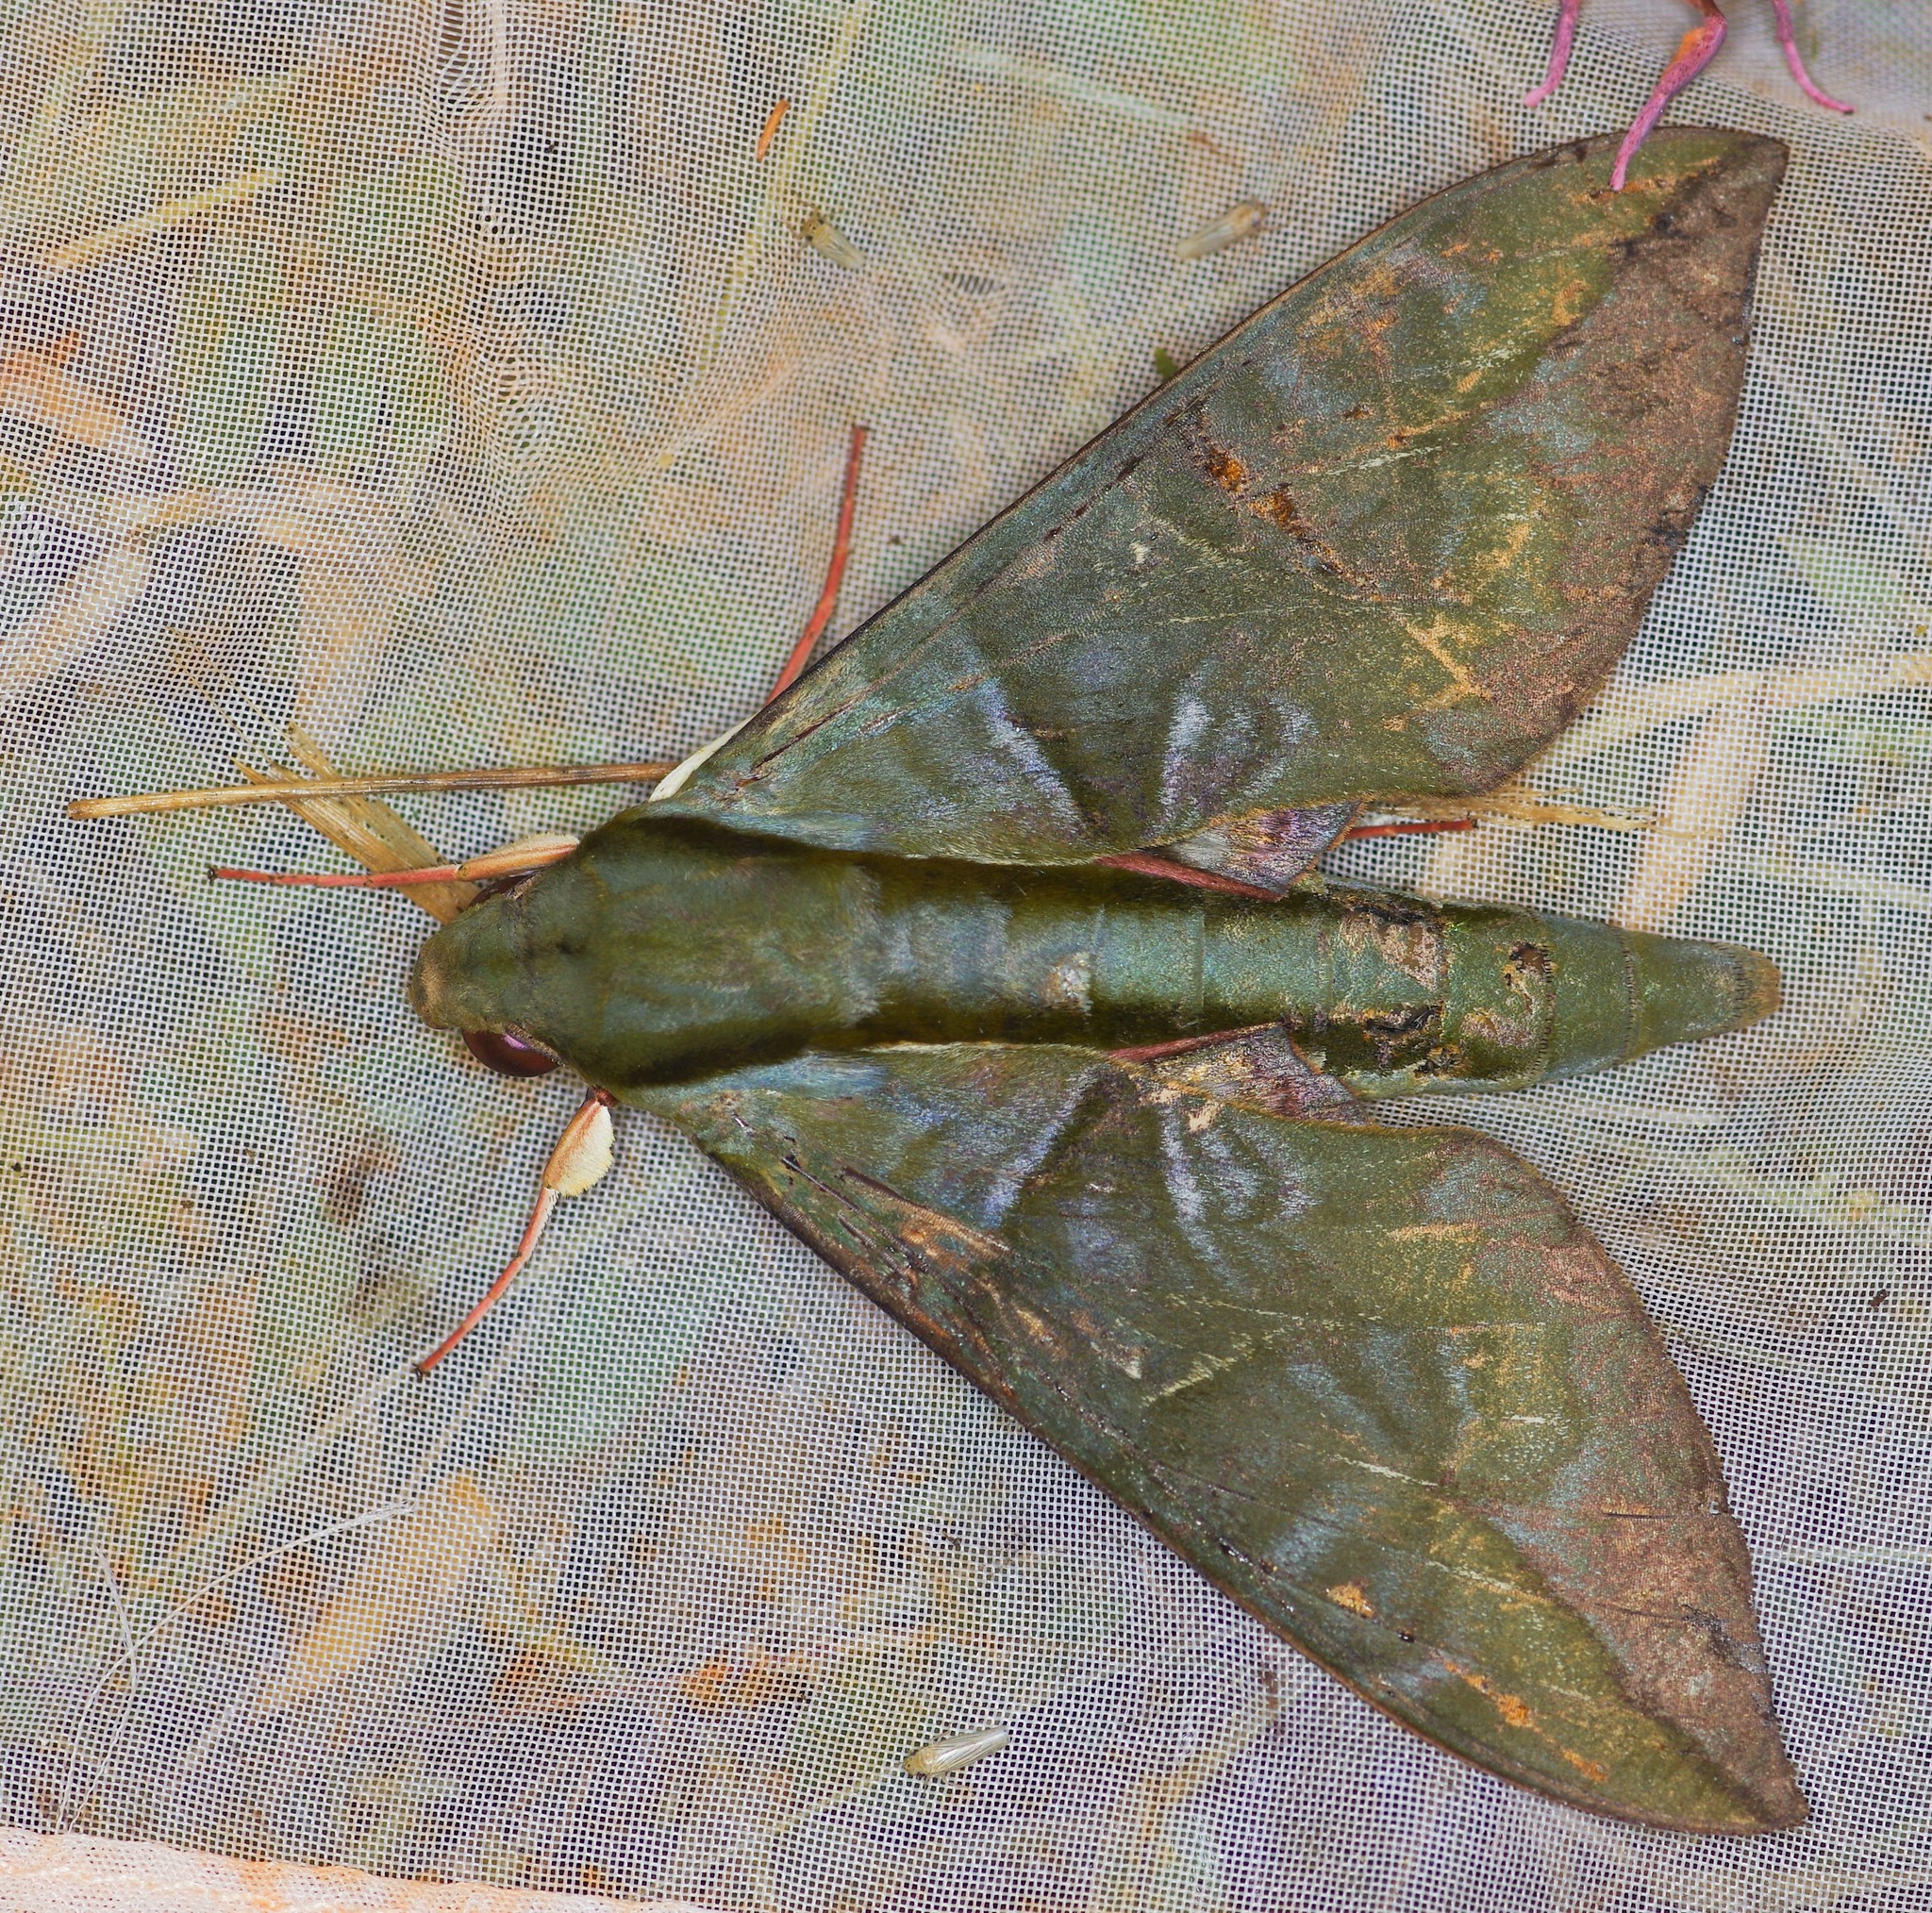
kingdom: Animalia
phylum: Arthropoda
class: Insecta
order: Lepidoptera
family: Sphingidae
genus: Eumorpha
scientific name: Eumorpha phorbas
